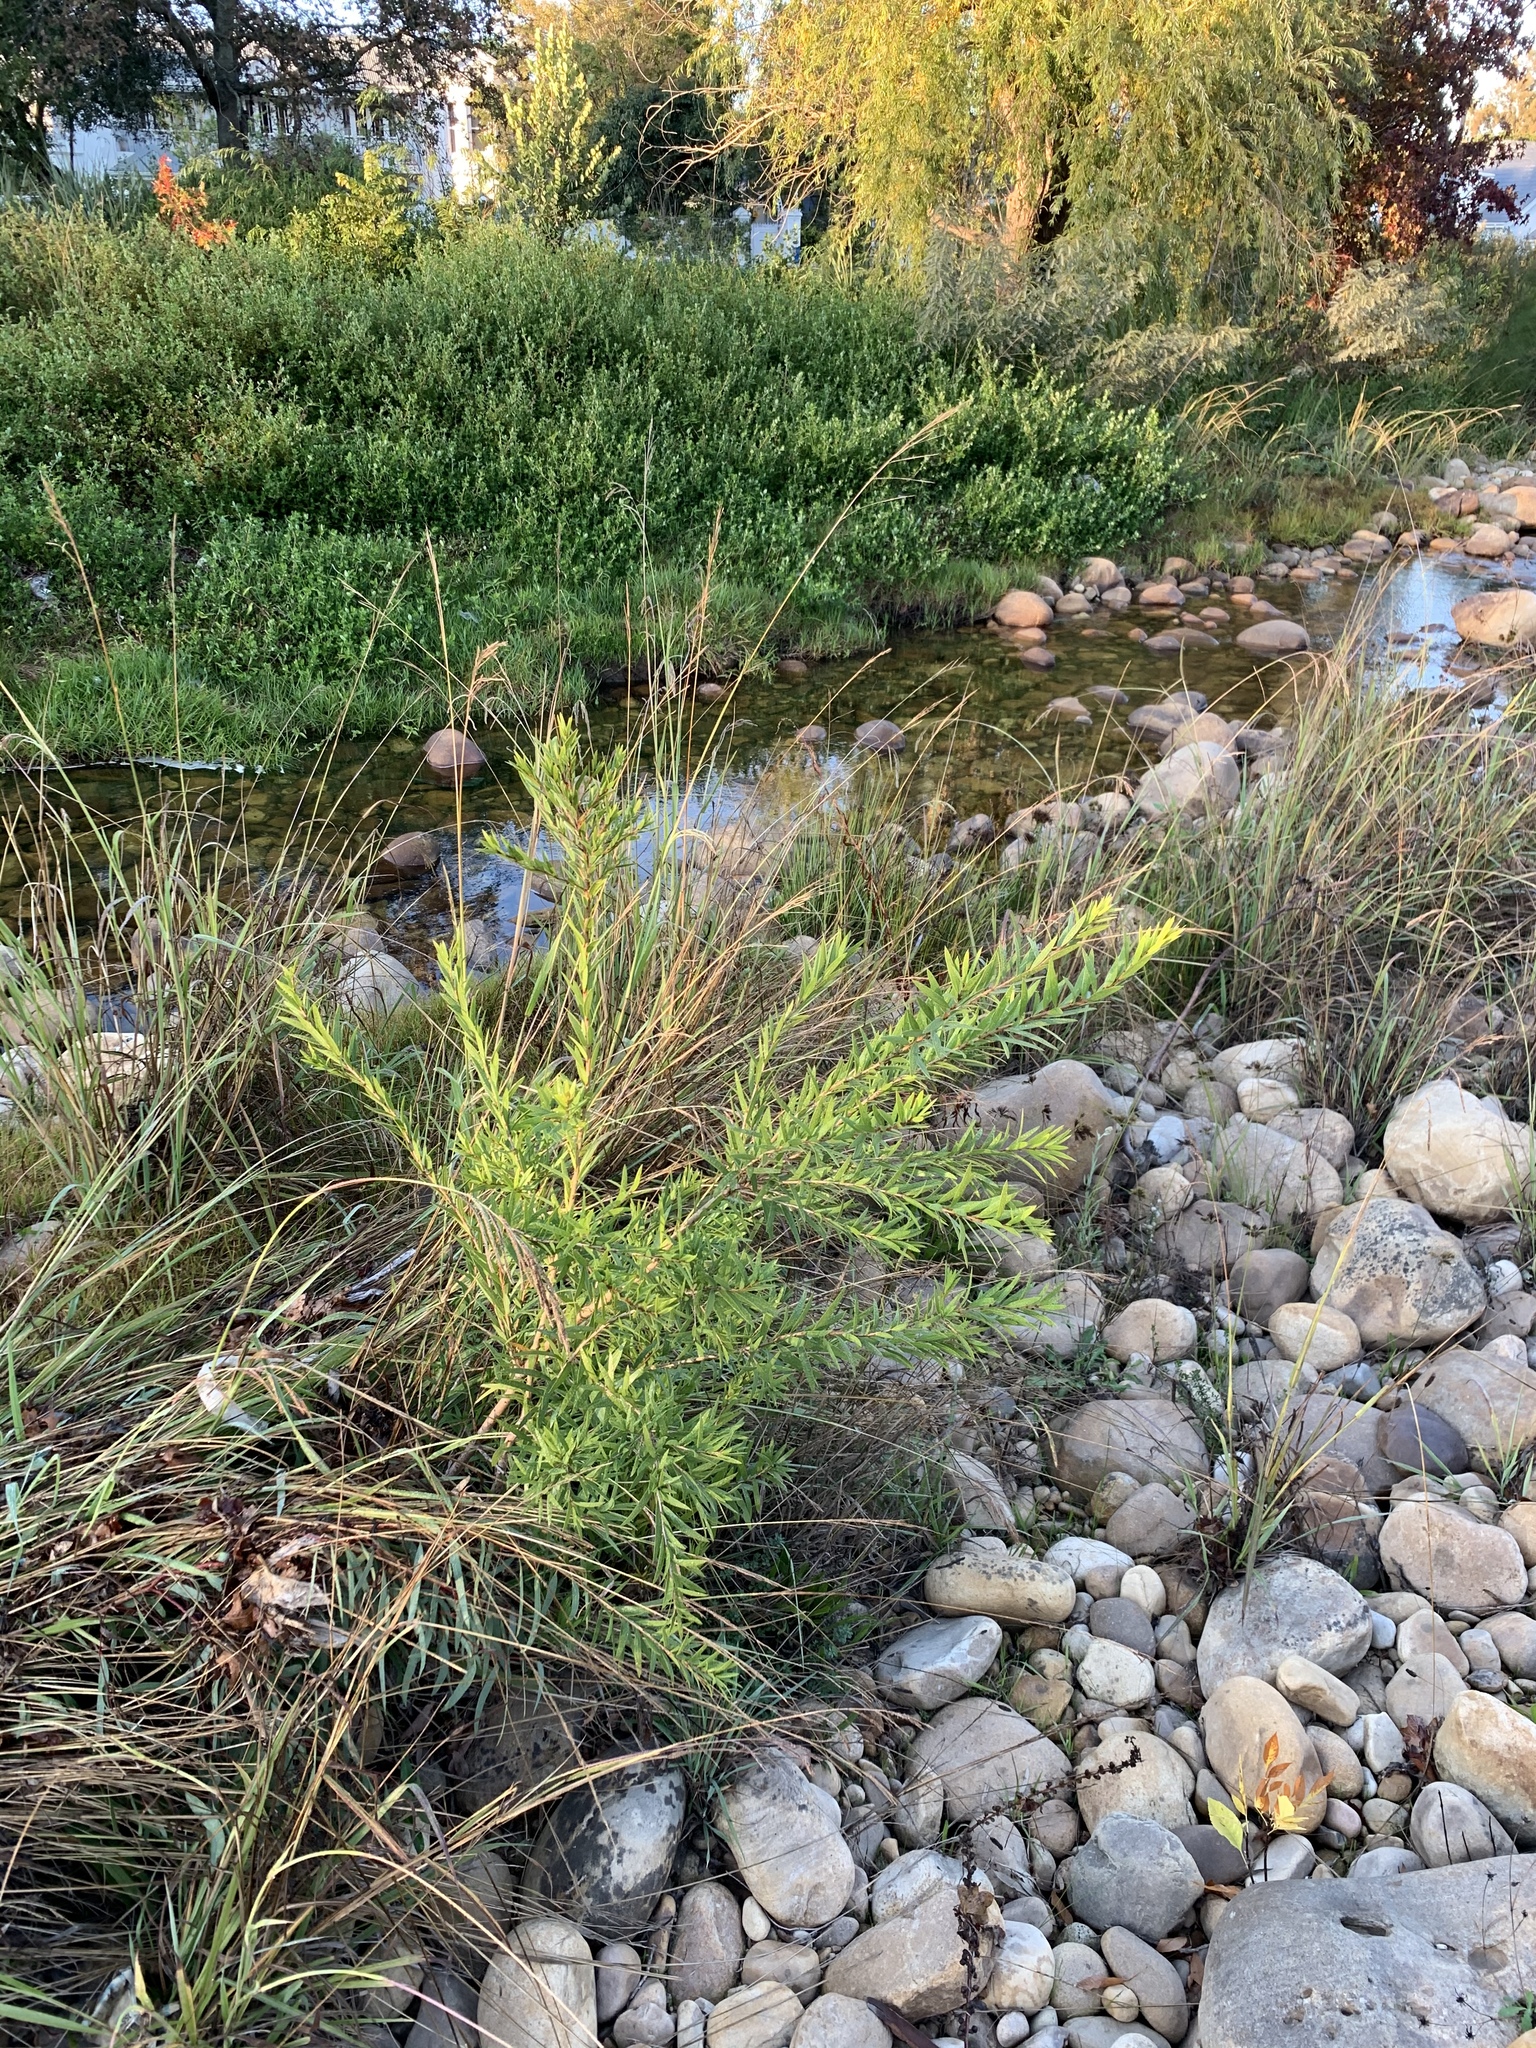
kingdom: Plantae
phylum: Tracheophyta
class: Magnoliopsida
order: Myrtales
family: Myrtaceae
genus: Callistemon
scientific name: Callistemon viminalis
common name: Drooping bottlebrush
